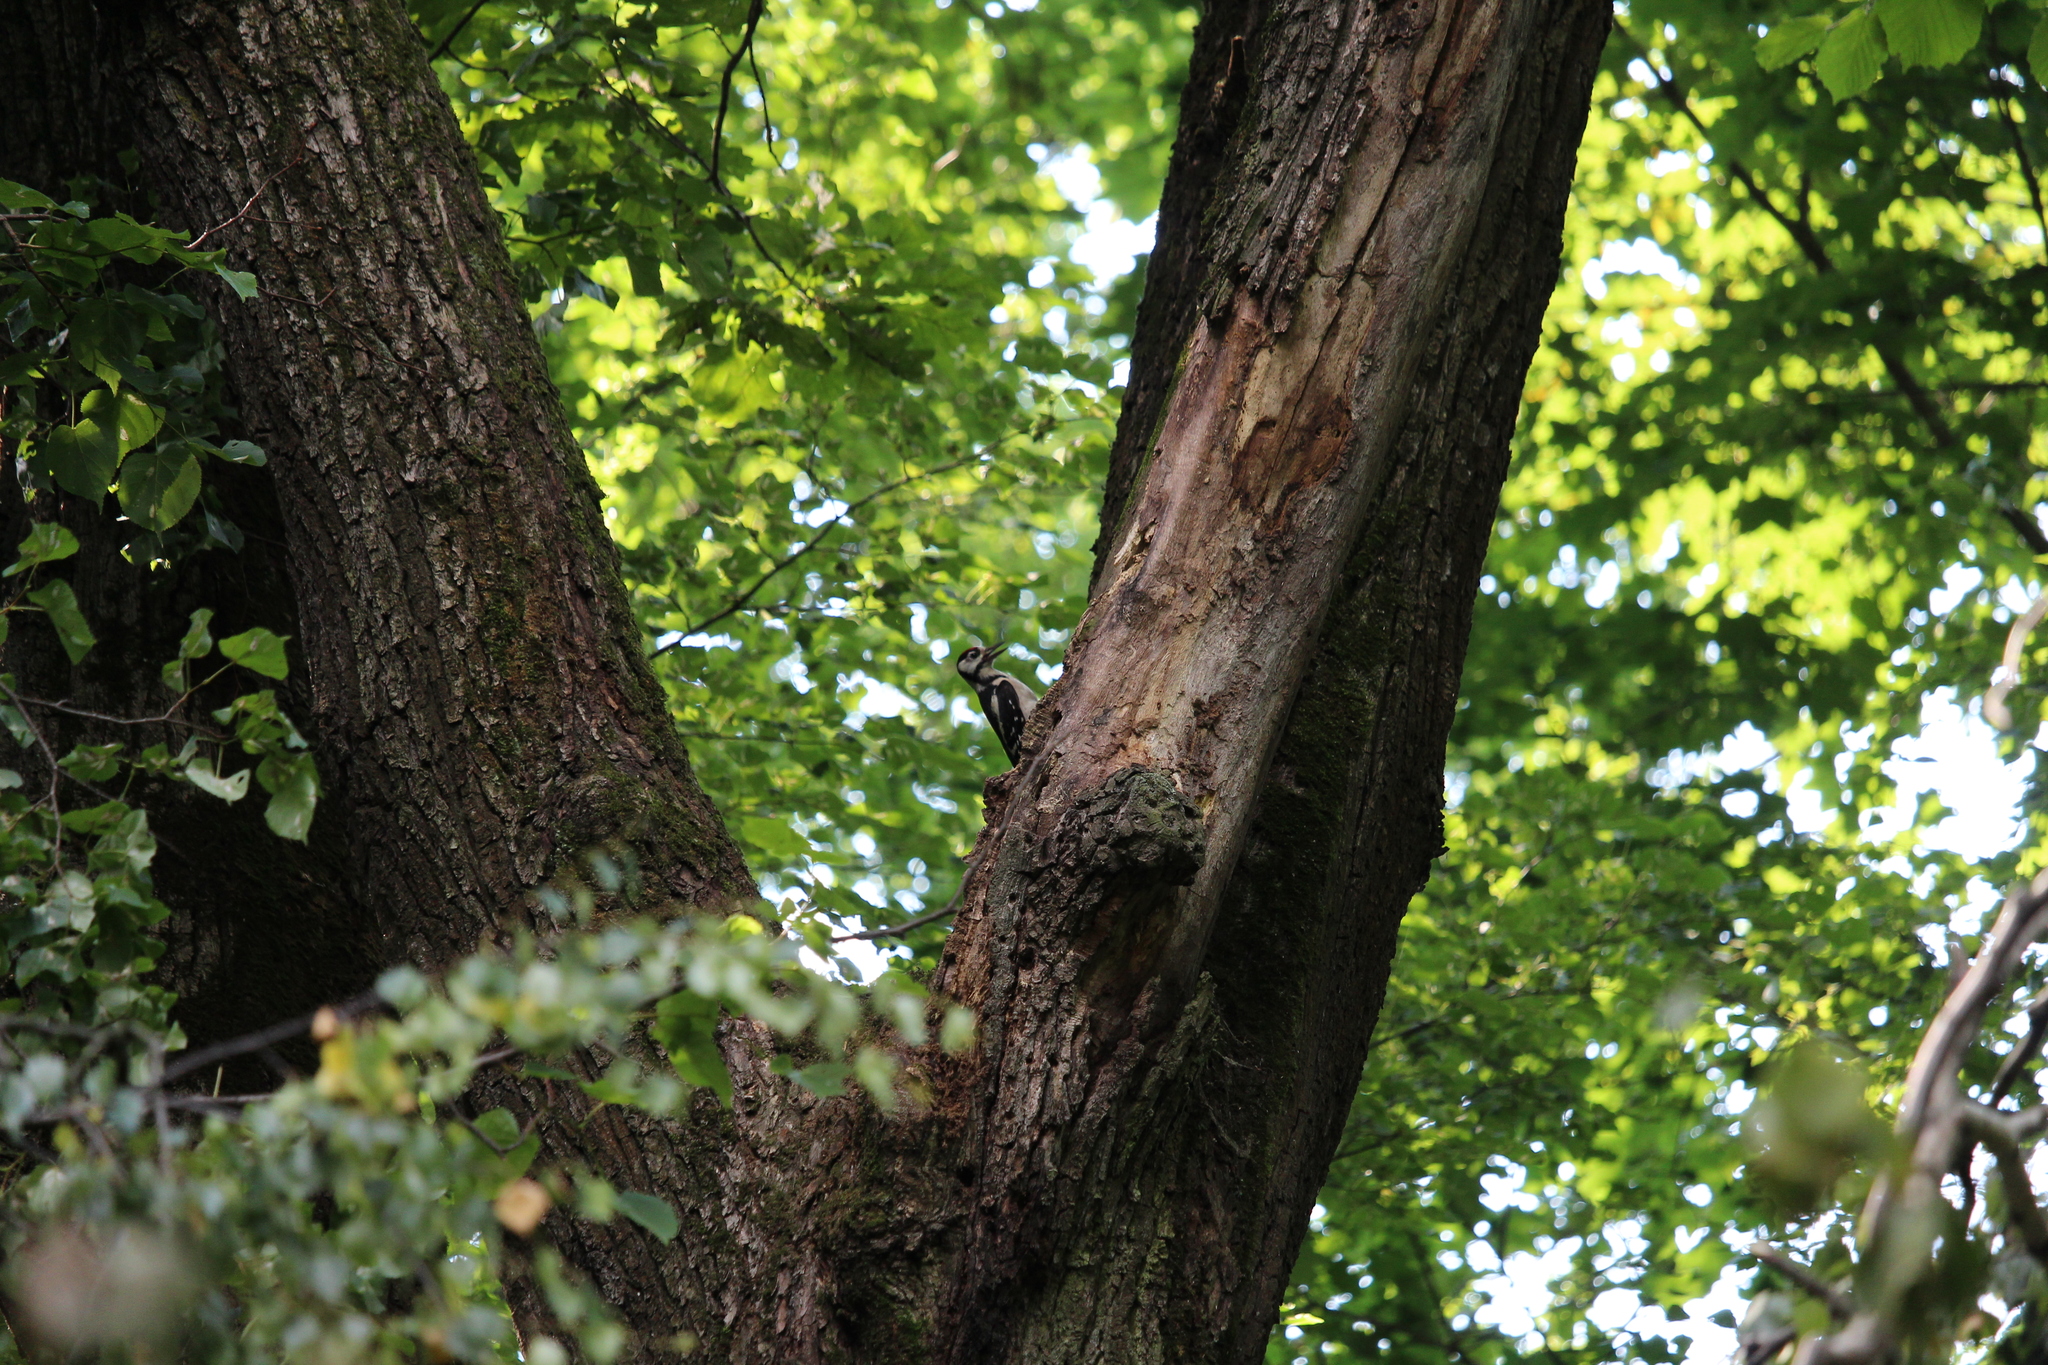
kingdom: Animalia
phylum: Chordata
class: Aves
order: Piciformes
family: Picidae
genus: Dendrocopos
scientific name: Dendrocopos major
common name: Great spotted woodpecker
